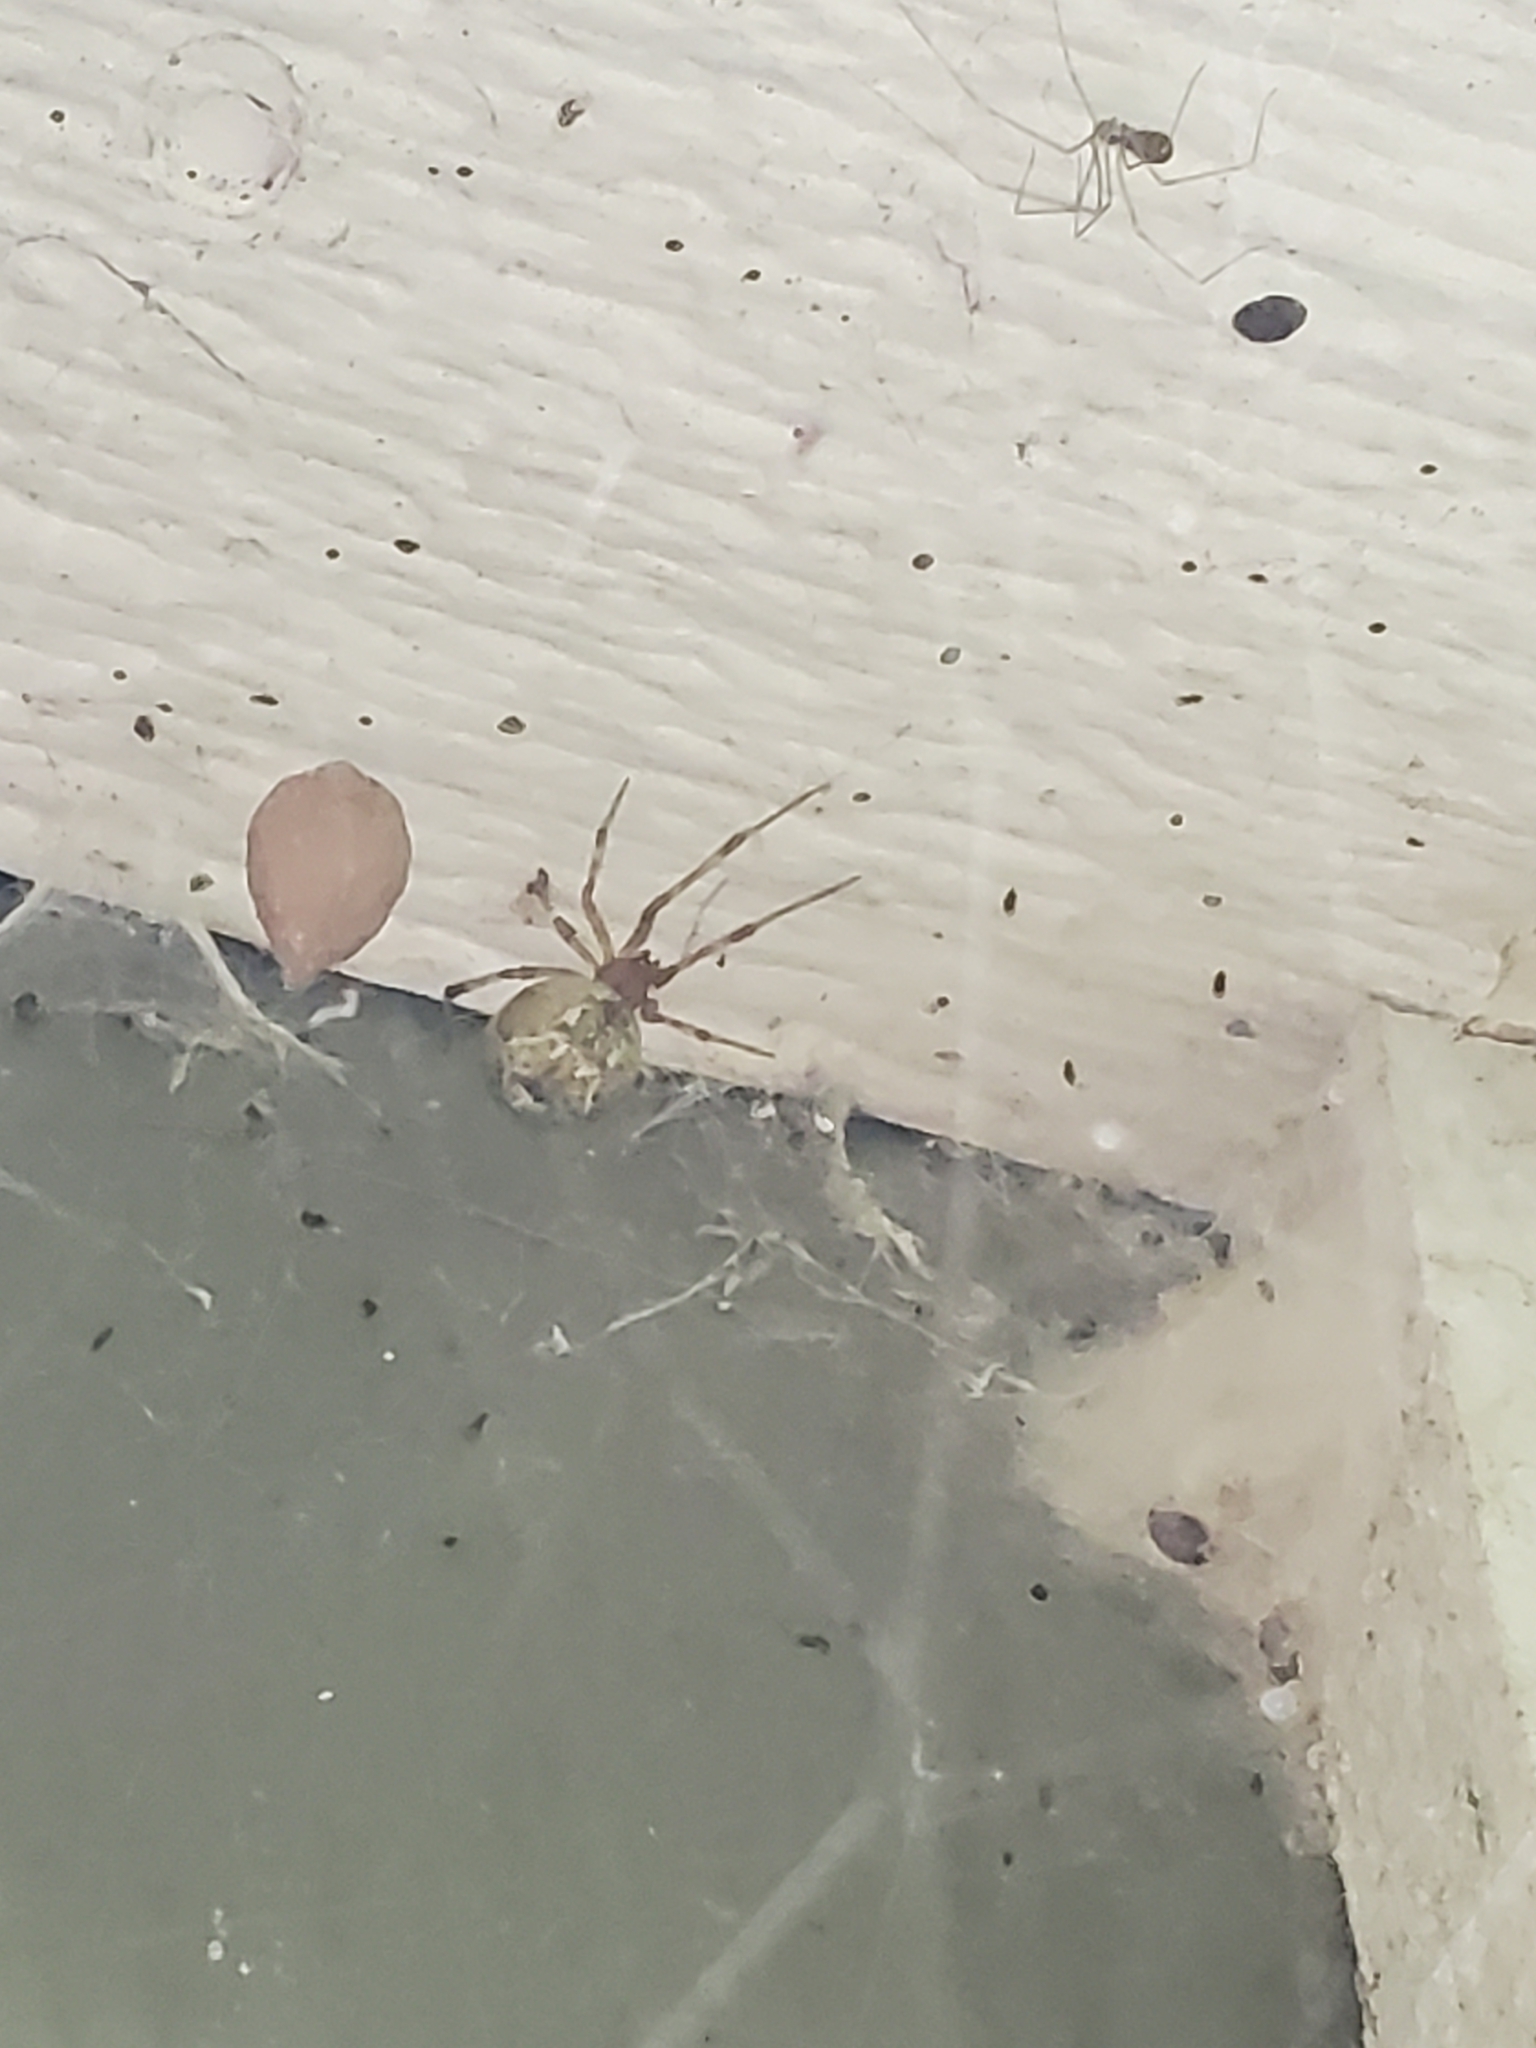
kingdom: Animalia
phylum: Arthropoda
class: Arachnida
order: Araneae
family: Theridiidae
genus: Parasteatoda
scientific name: Parasteatoda tepidariorum
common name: Common house spider
